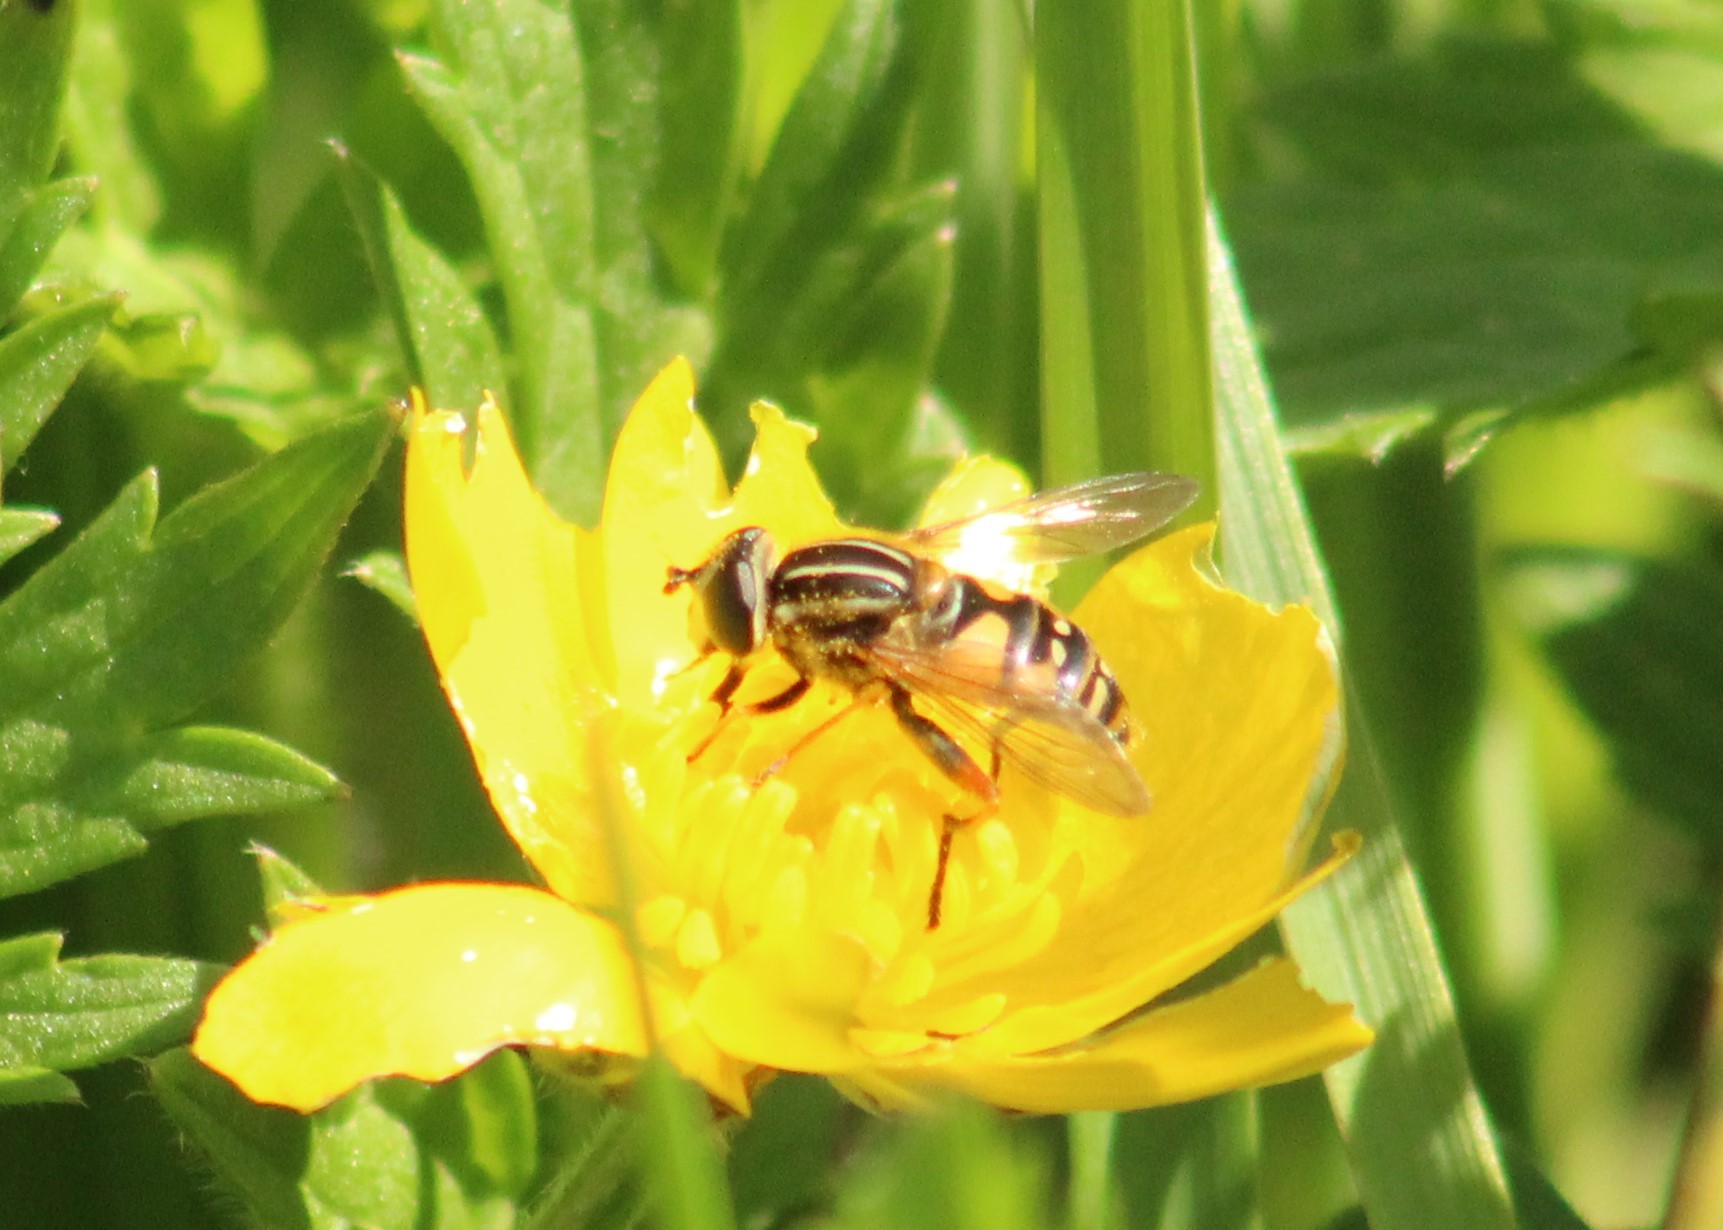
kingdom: Animalia
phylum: Arthropoda
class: Insecta
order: Diptera
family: Syrphidae
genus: Helophilus
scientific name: Helophilus pendulus
